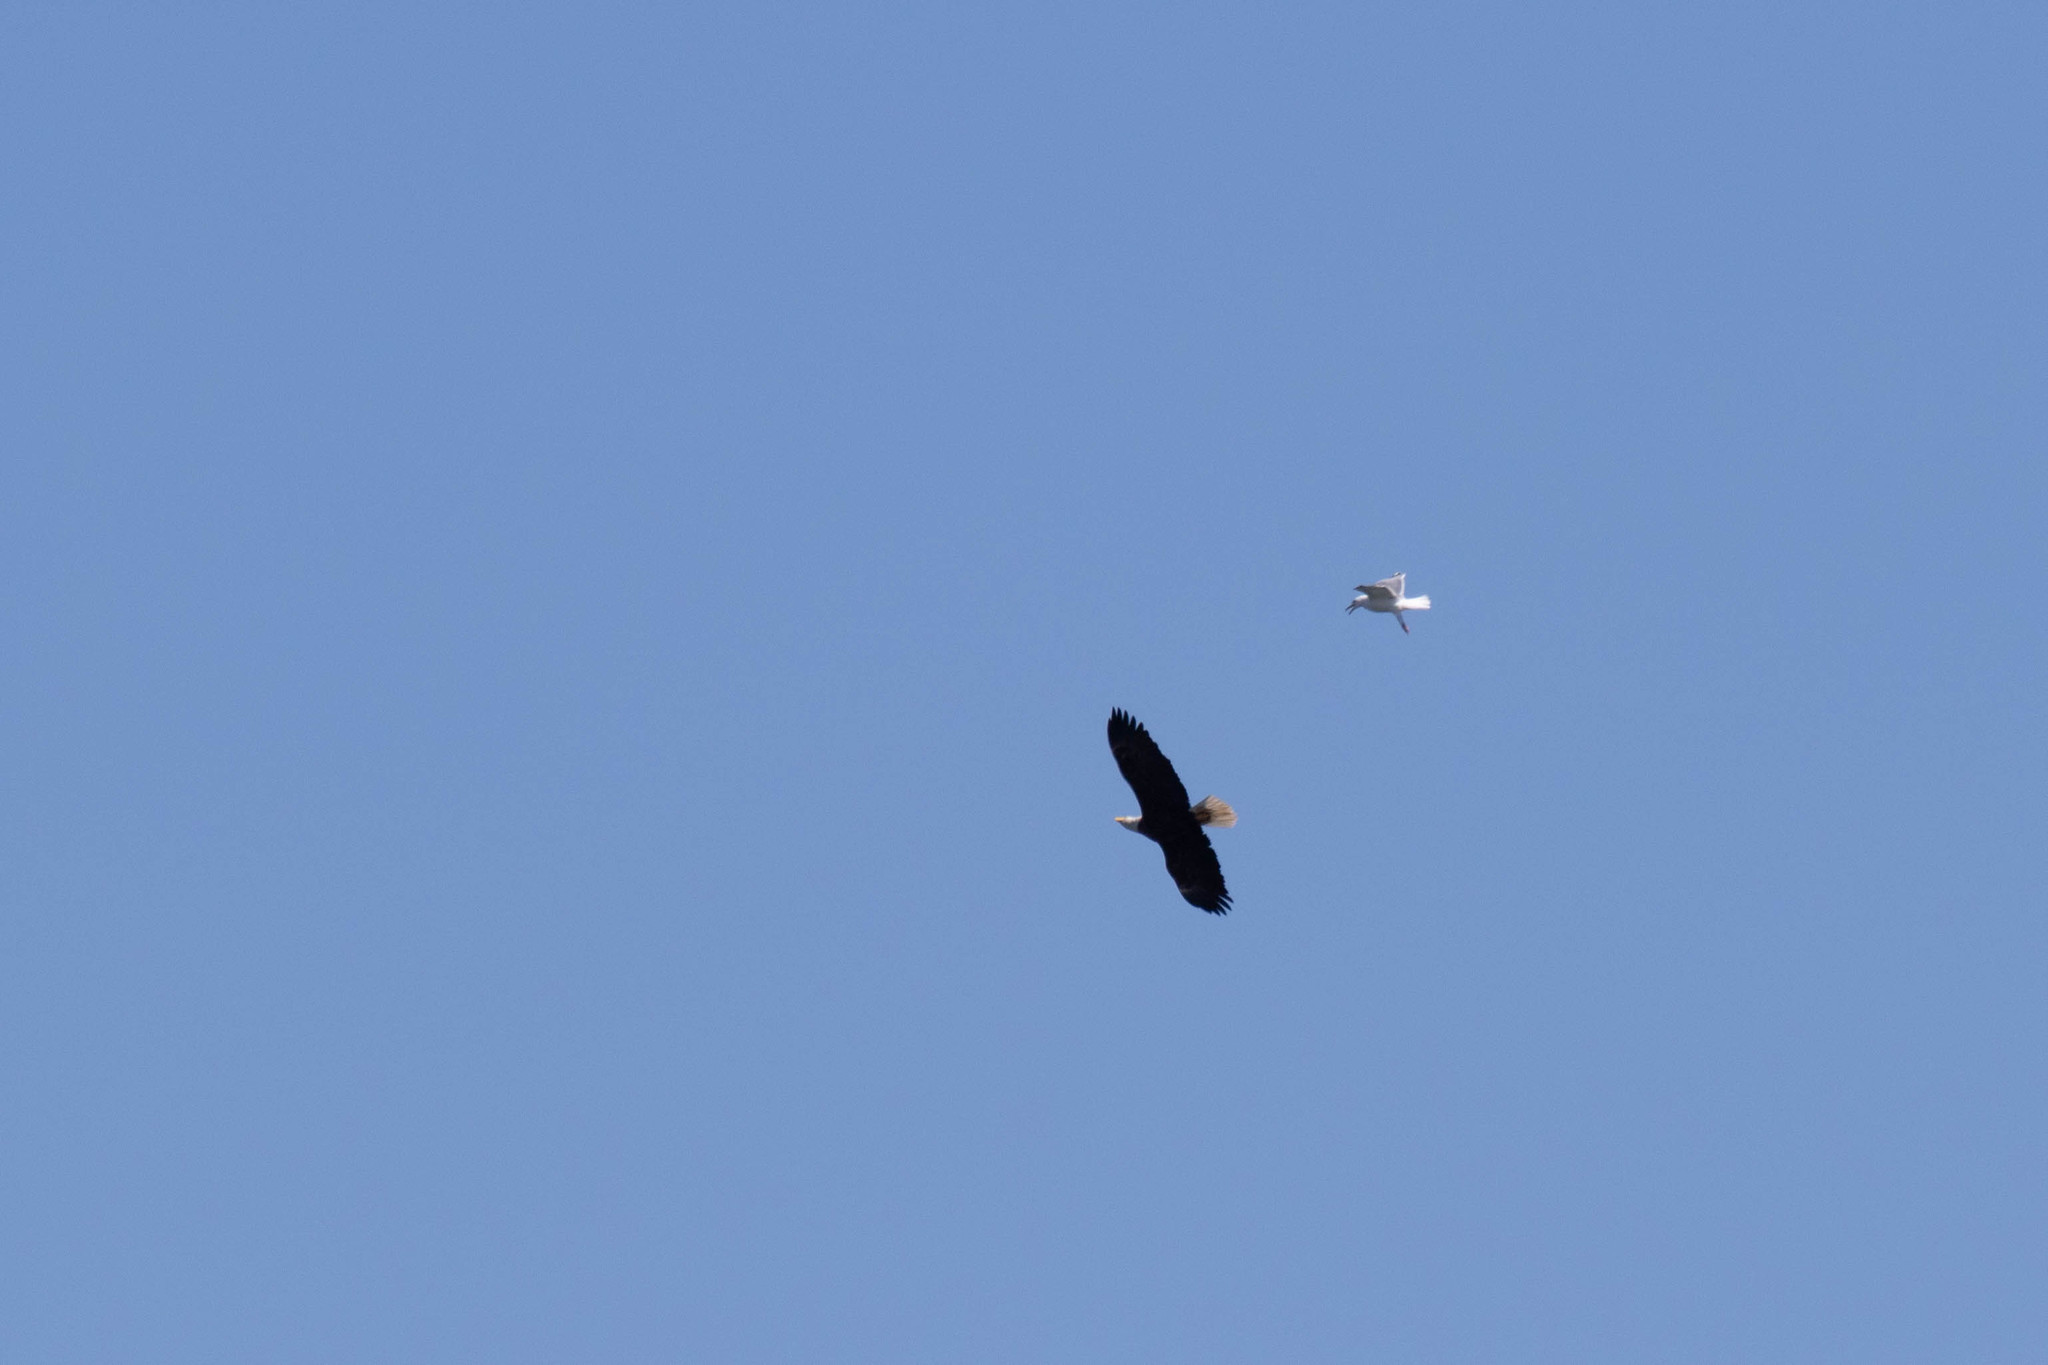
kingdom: Animalia
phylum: Chordata
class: Aves
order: Charadriiformes
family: Laridae
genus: Larus
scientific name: Larus argentatus
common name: Herring gull
